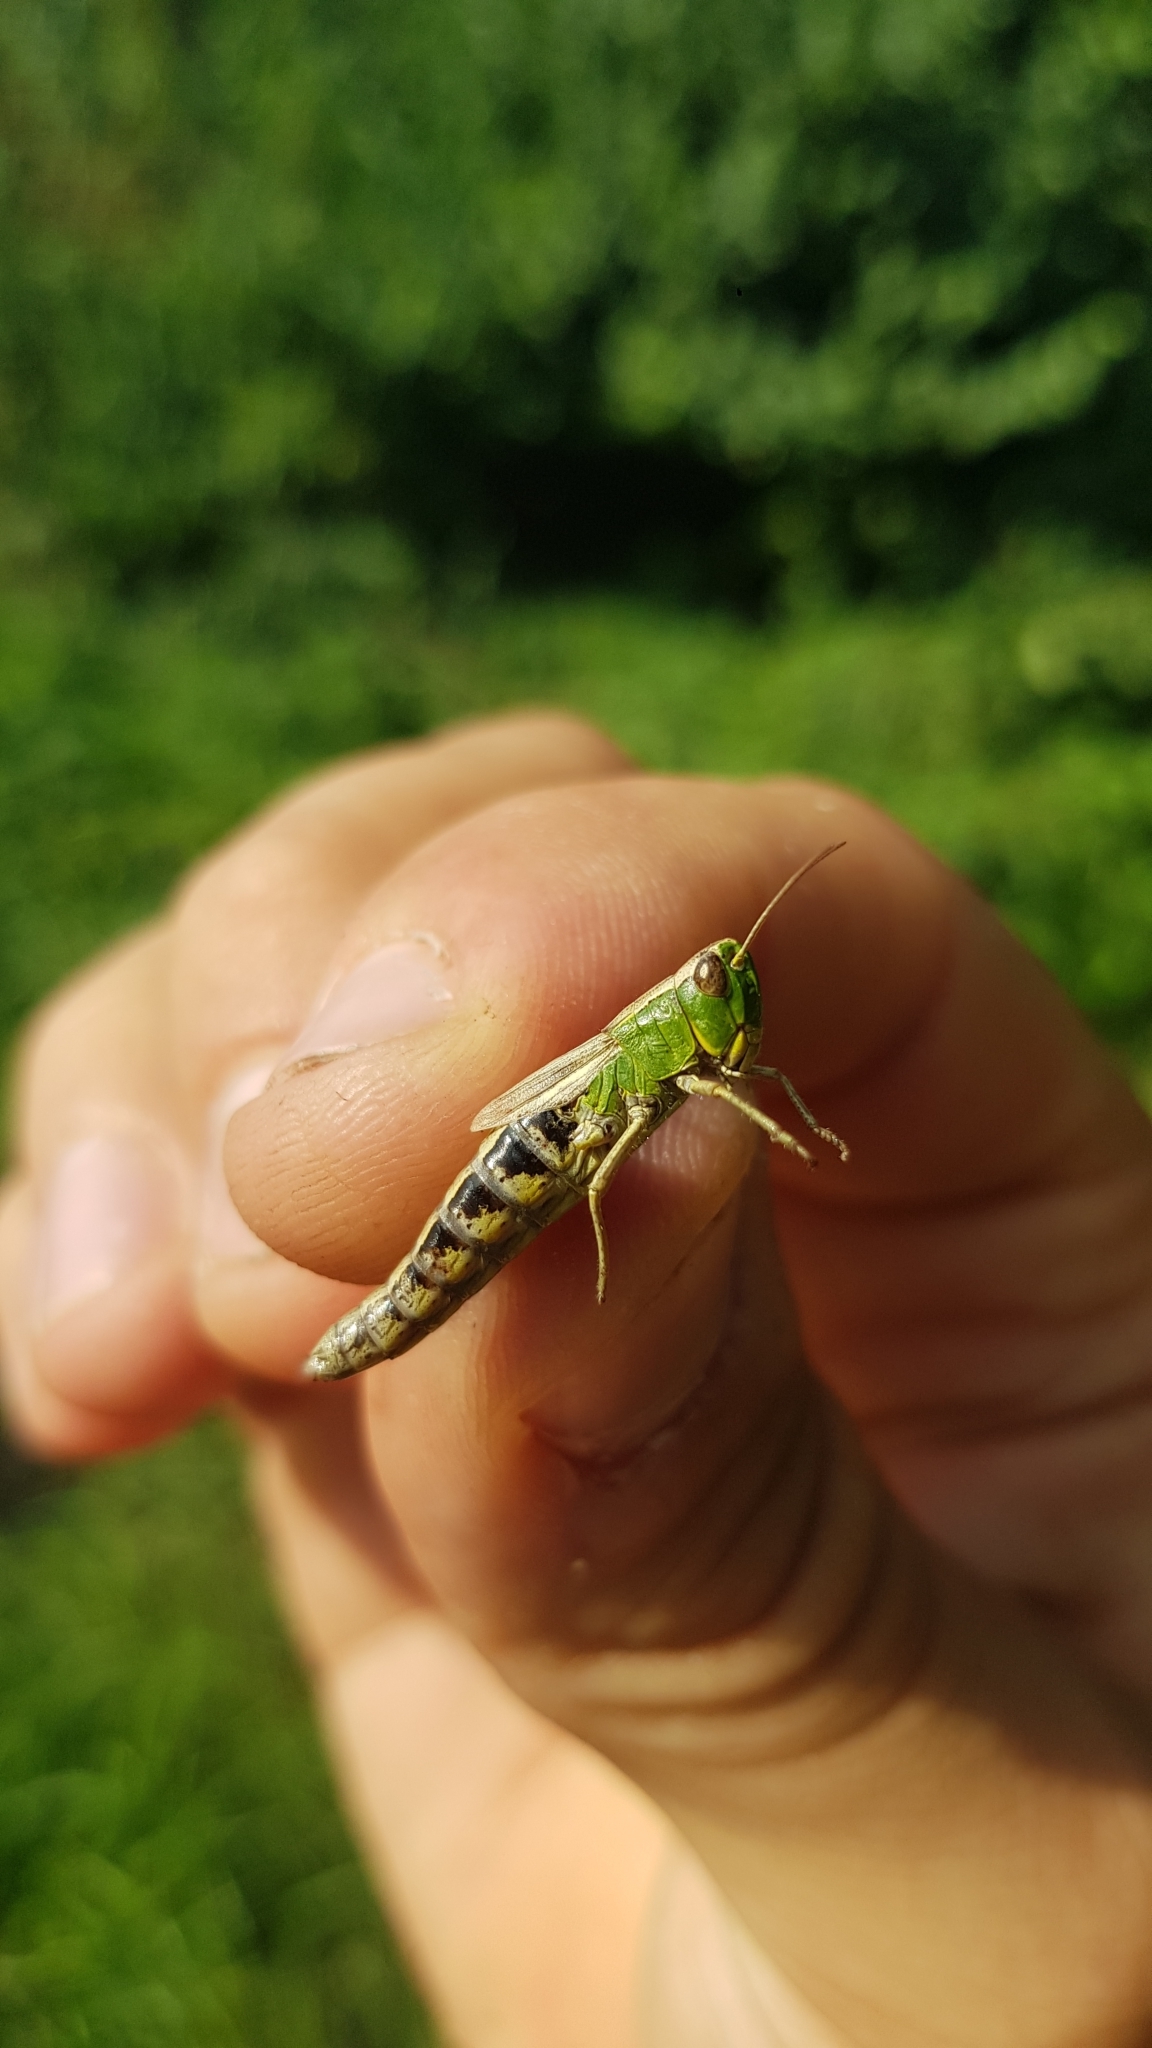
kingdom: Animalia
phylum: Arthropoda
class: Insecta
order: Orthoptera
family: Acrididae
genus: Pseudochorthippus
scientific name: Pseudochorthippus parallelus
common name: Meadow grasshopper
